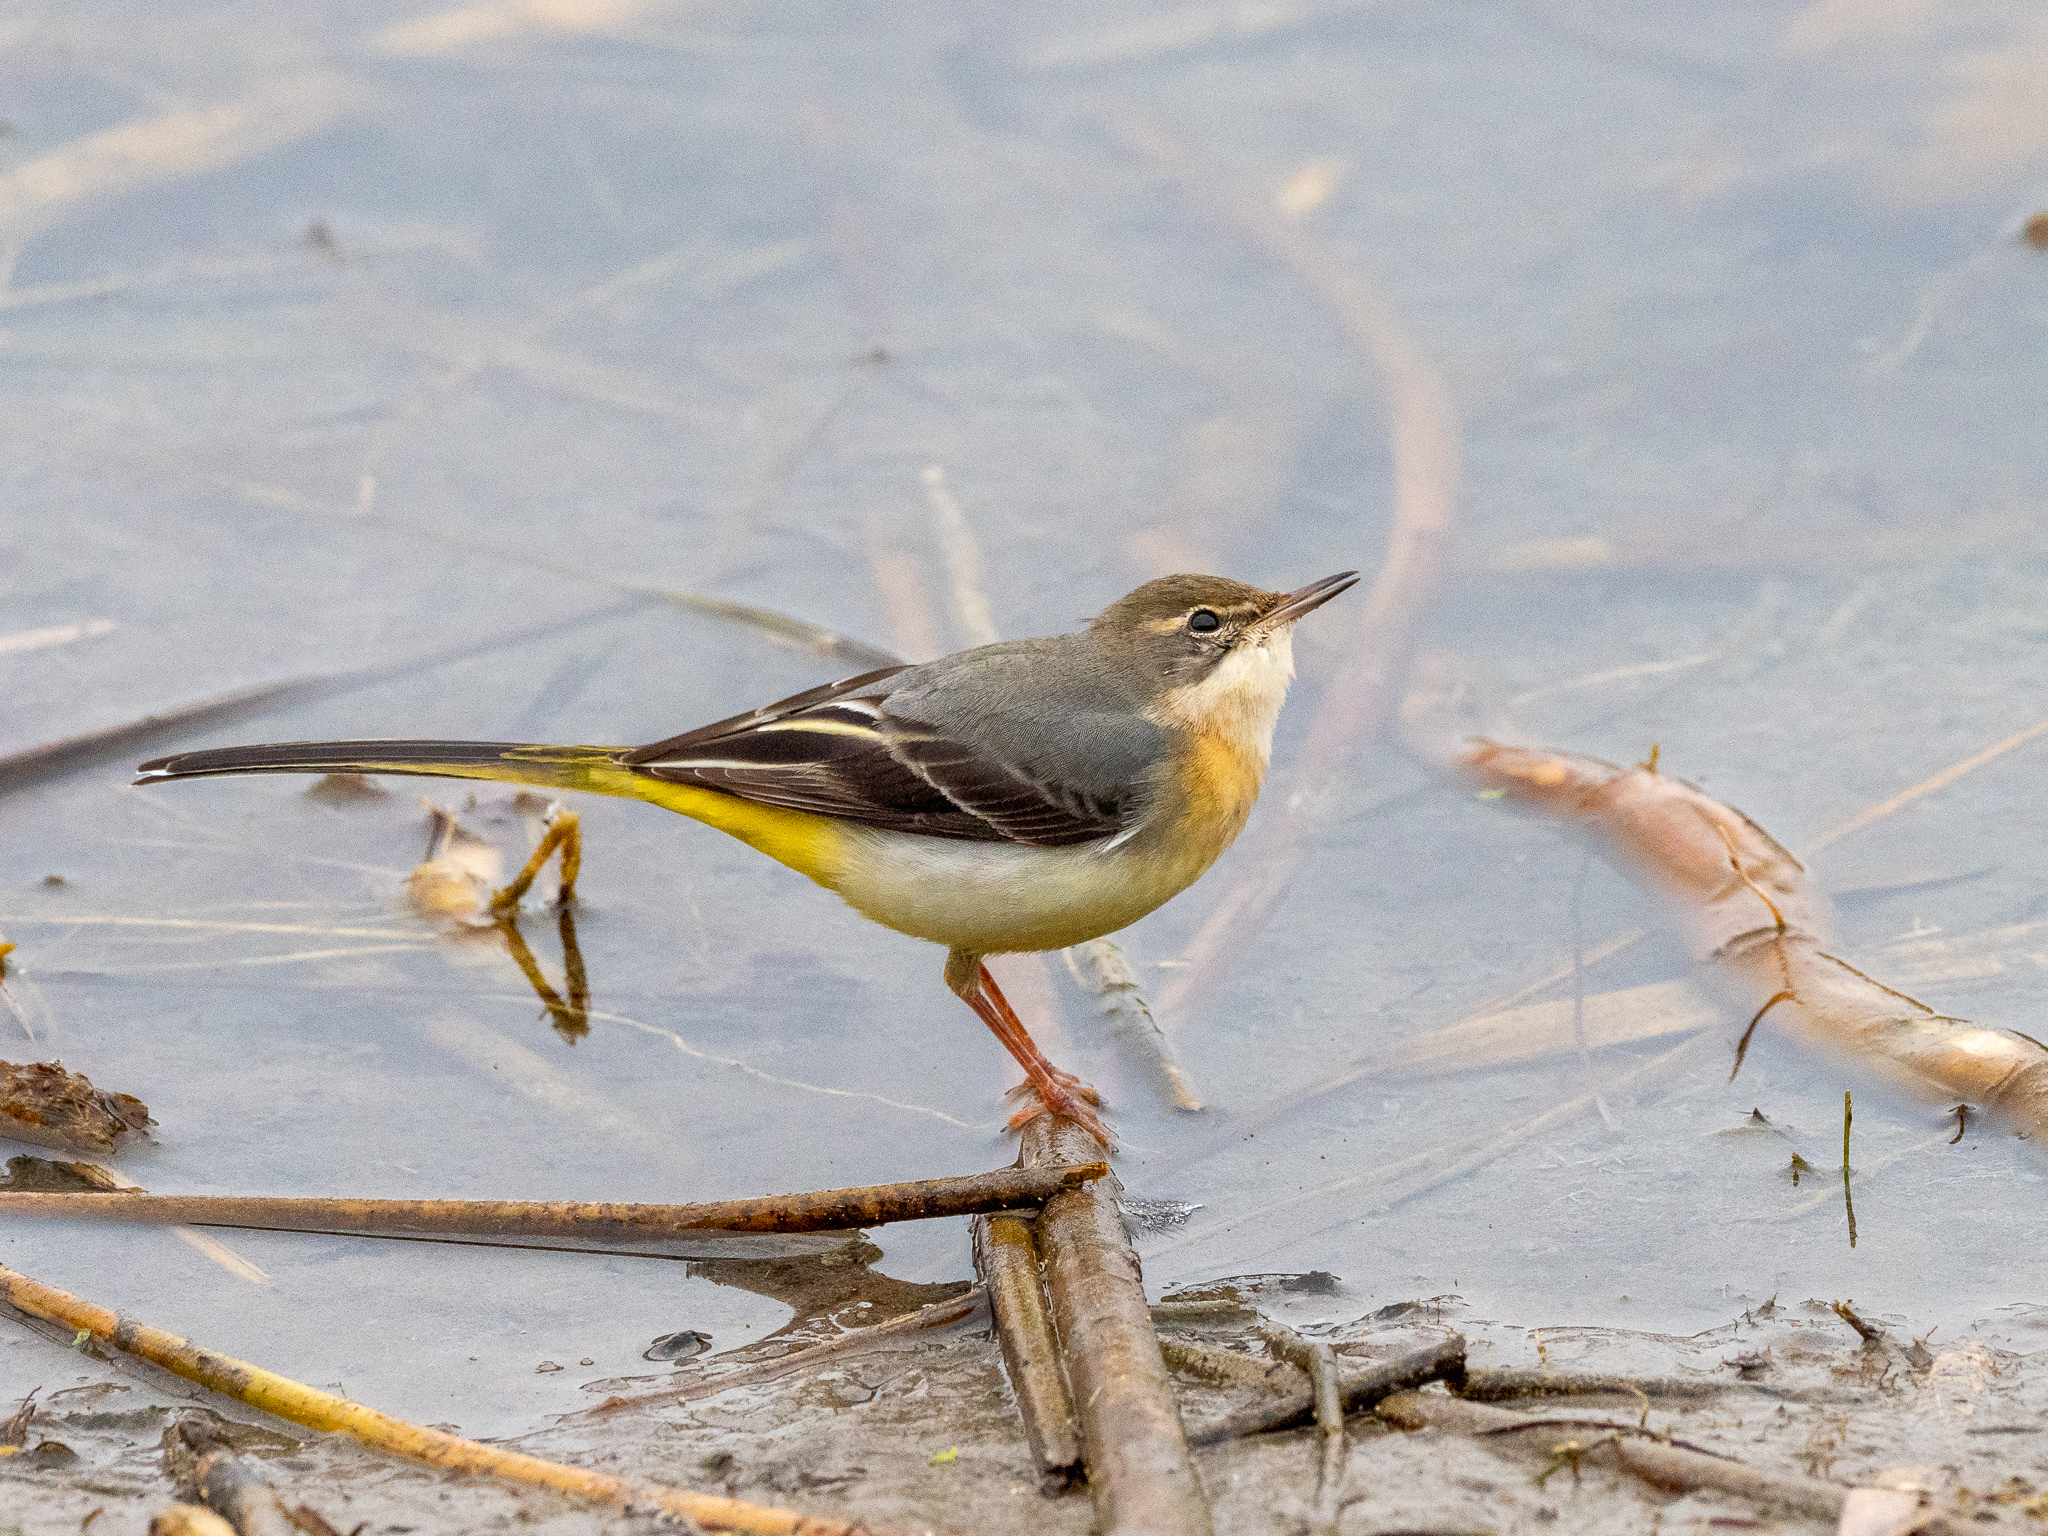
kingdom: Animalia
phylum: Chordata
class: Aves
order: Passeriformes
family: Motacillidae
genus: Motacilla
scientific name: Motacilla cinerea
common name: Grey wagtail
